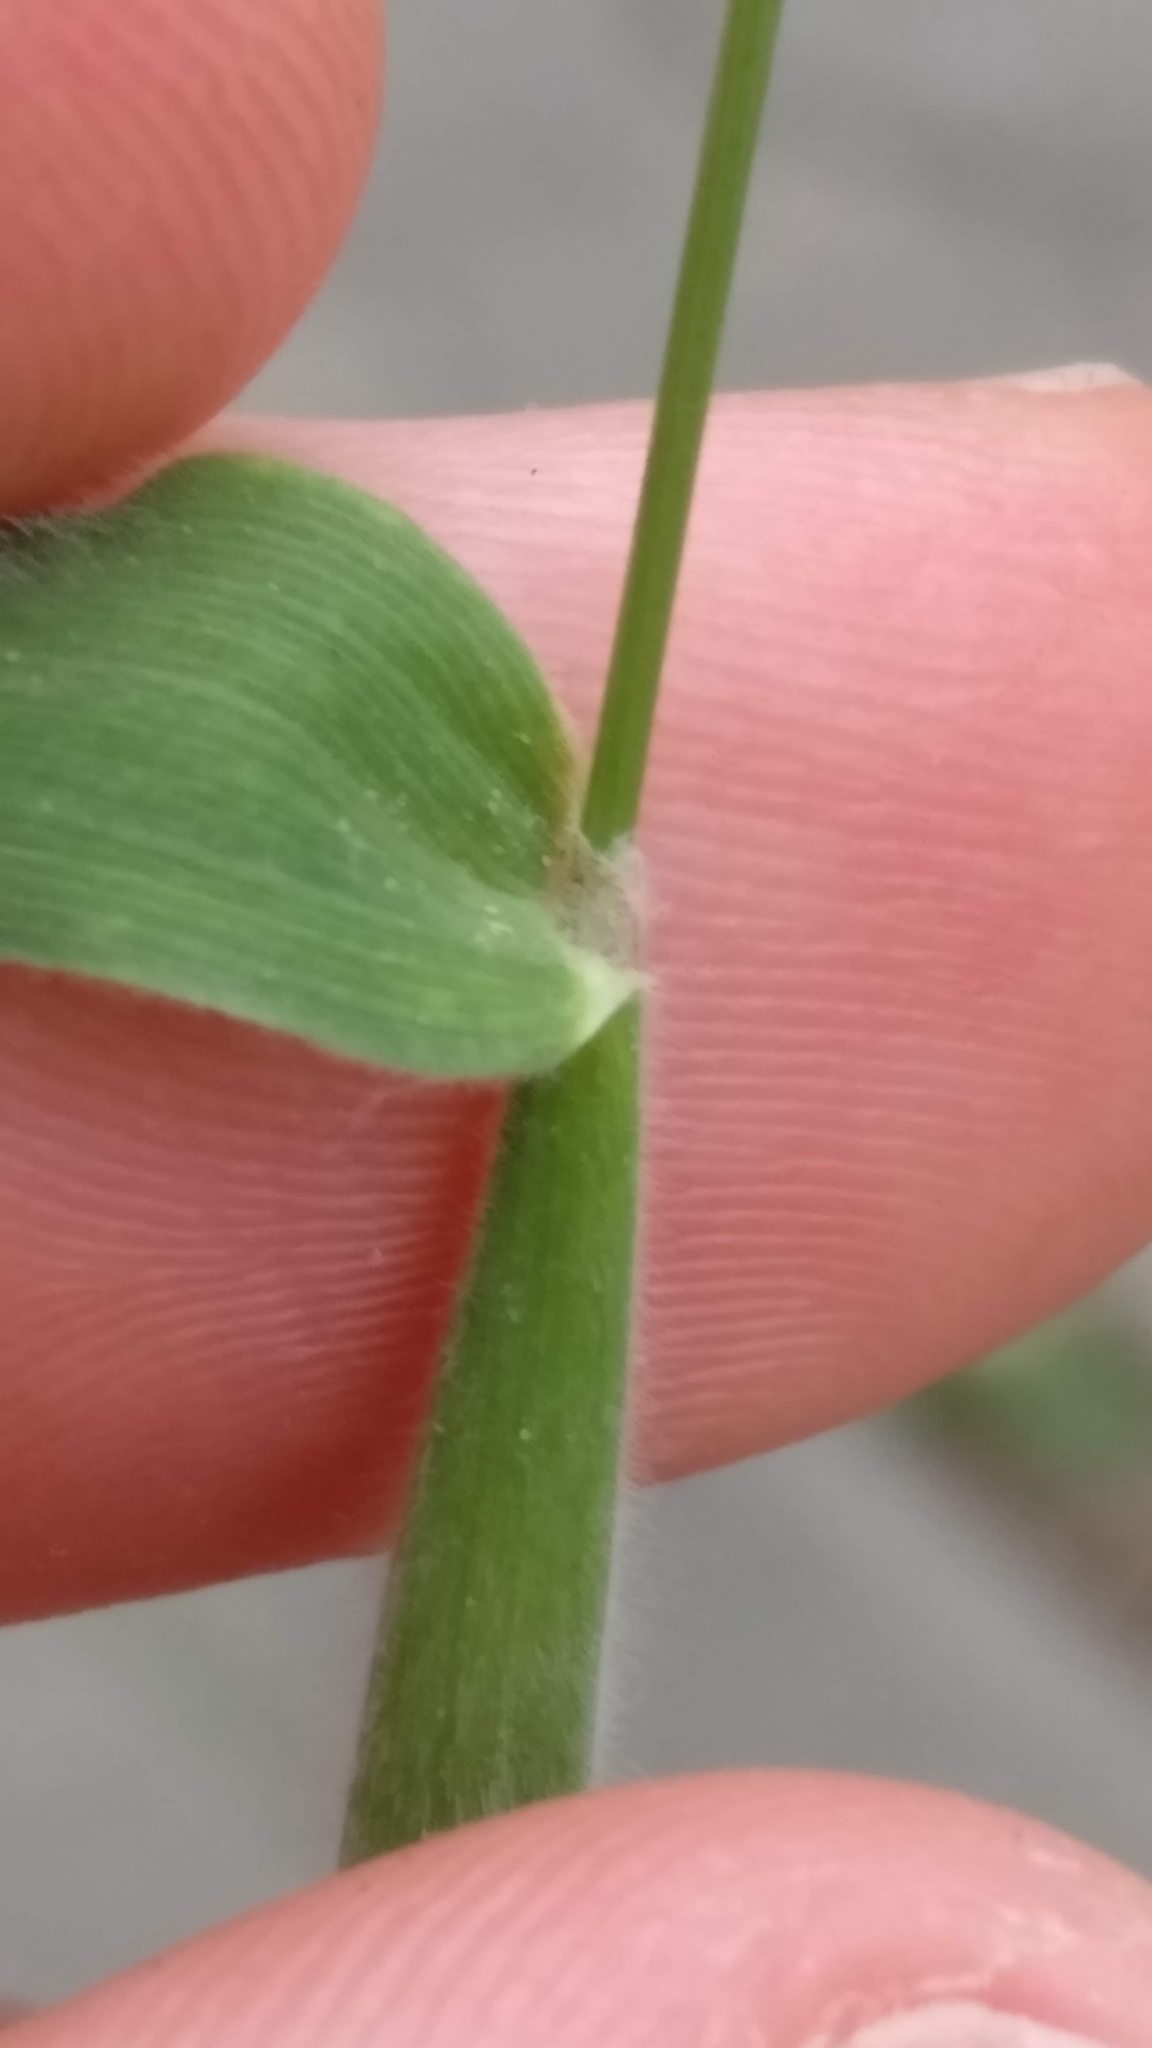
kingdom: Plantae
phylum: Tracheophyta
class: Liliopsida
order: Poales
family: Poaceae
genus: Lagurus
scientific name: Lagurus ovatus
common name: Hare's-tail
